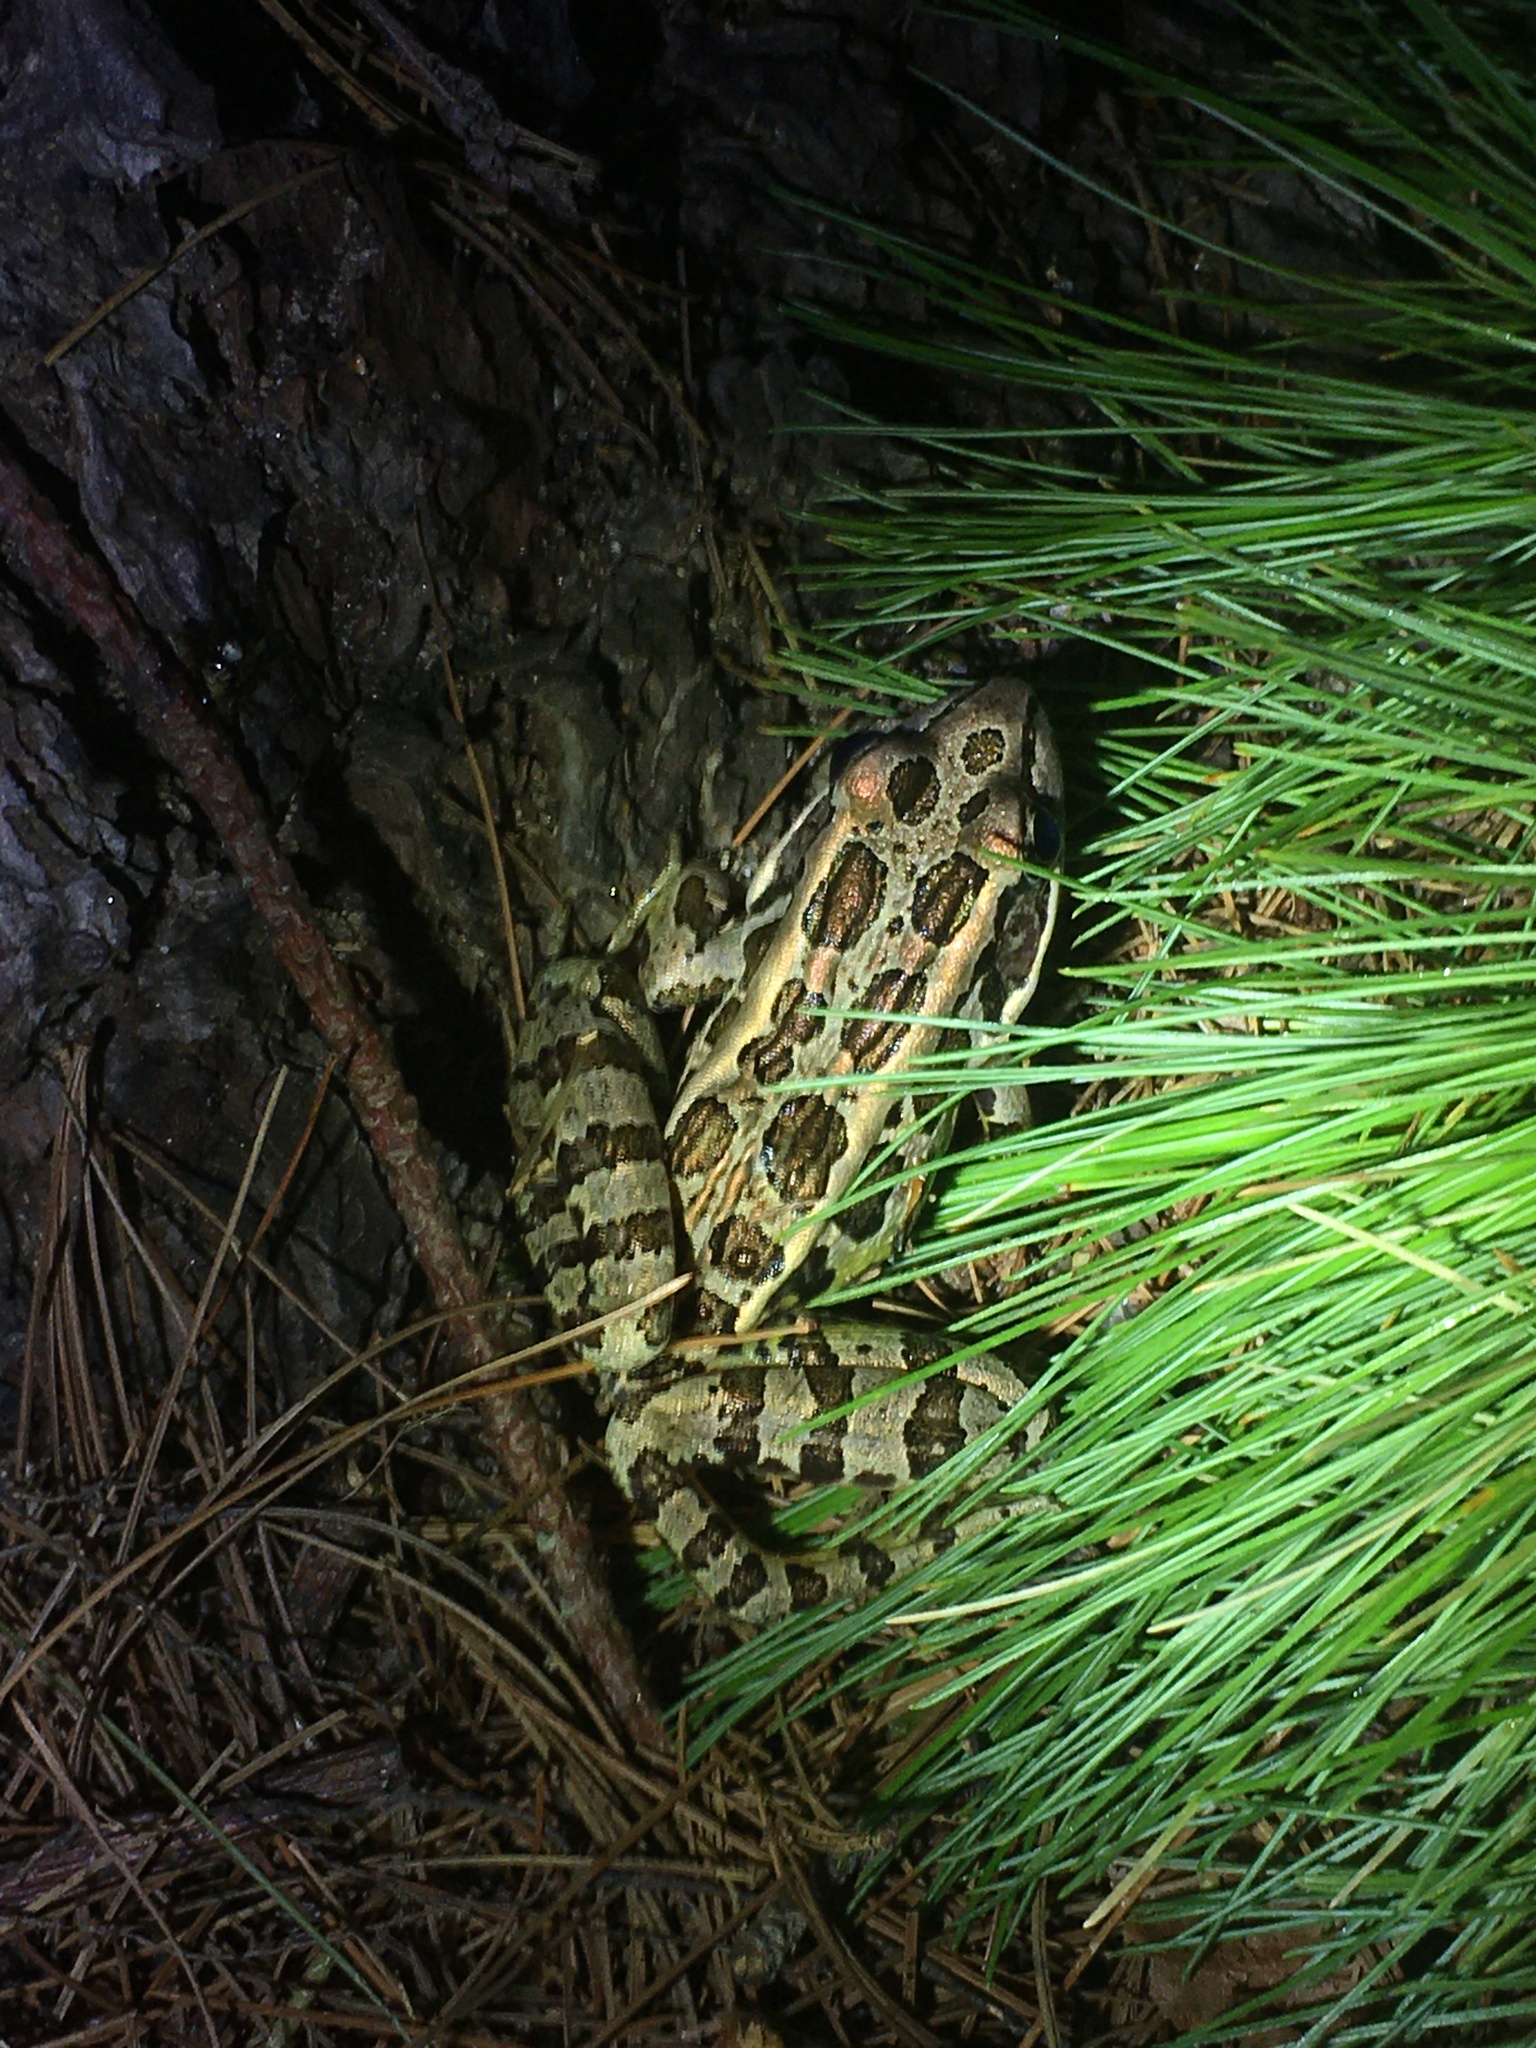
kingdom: Animalia
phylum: Chordata
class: Amphibia
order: Anura
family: Ranidae
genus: Lithobates
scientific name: Lithobates palustris
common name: Pickerel frog
